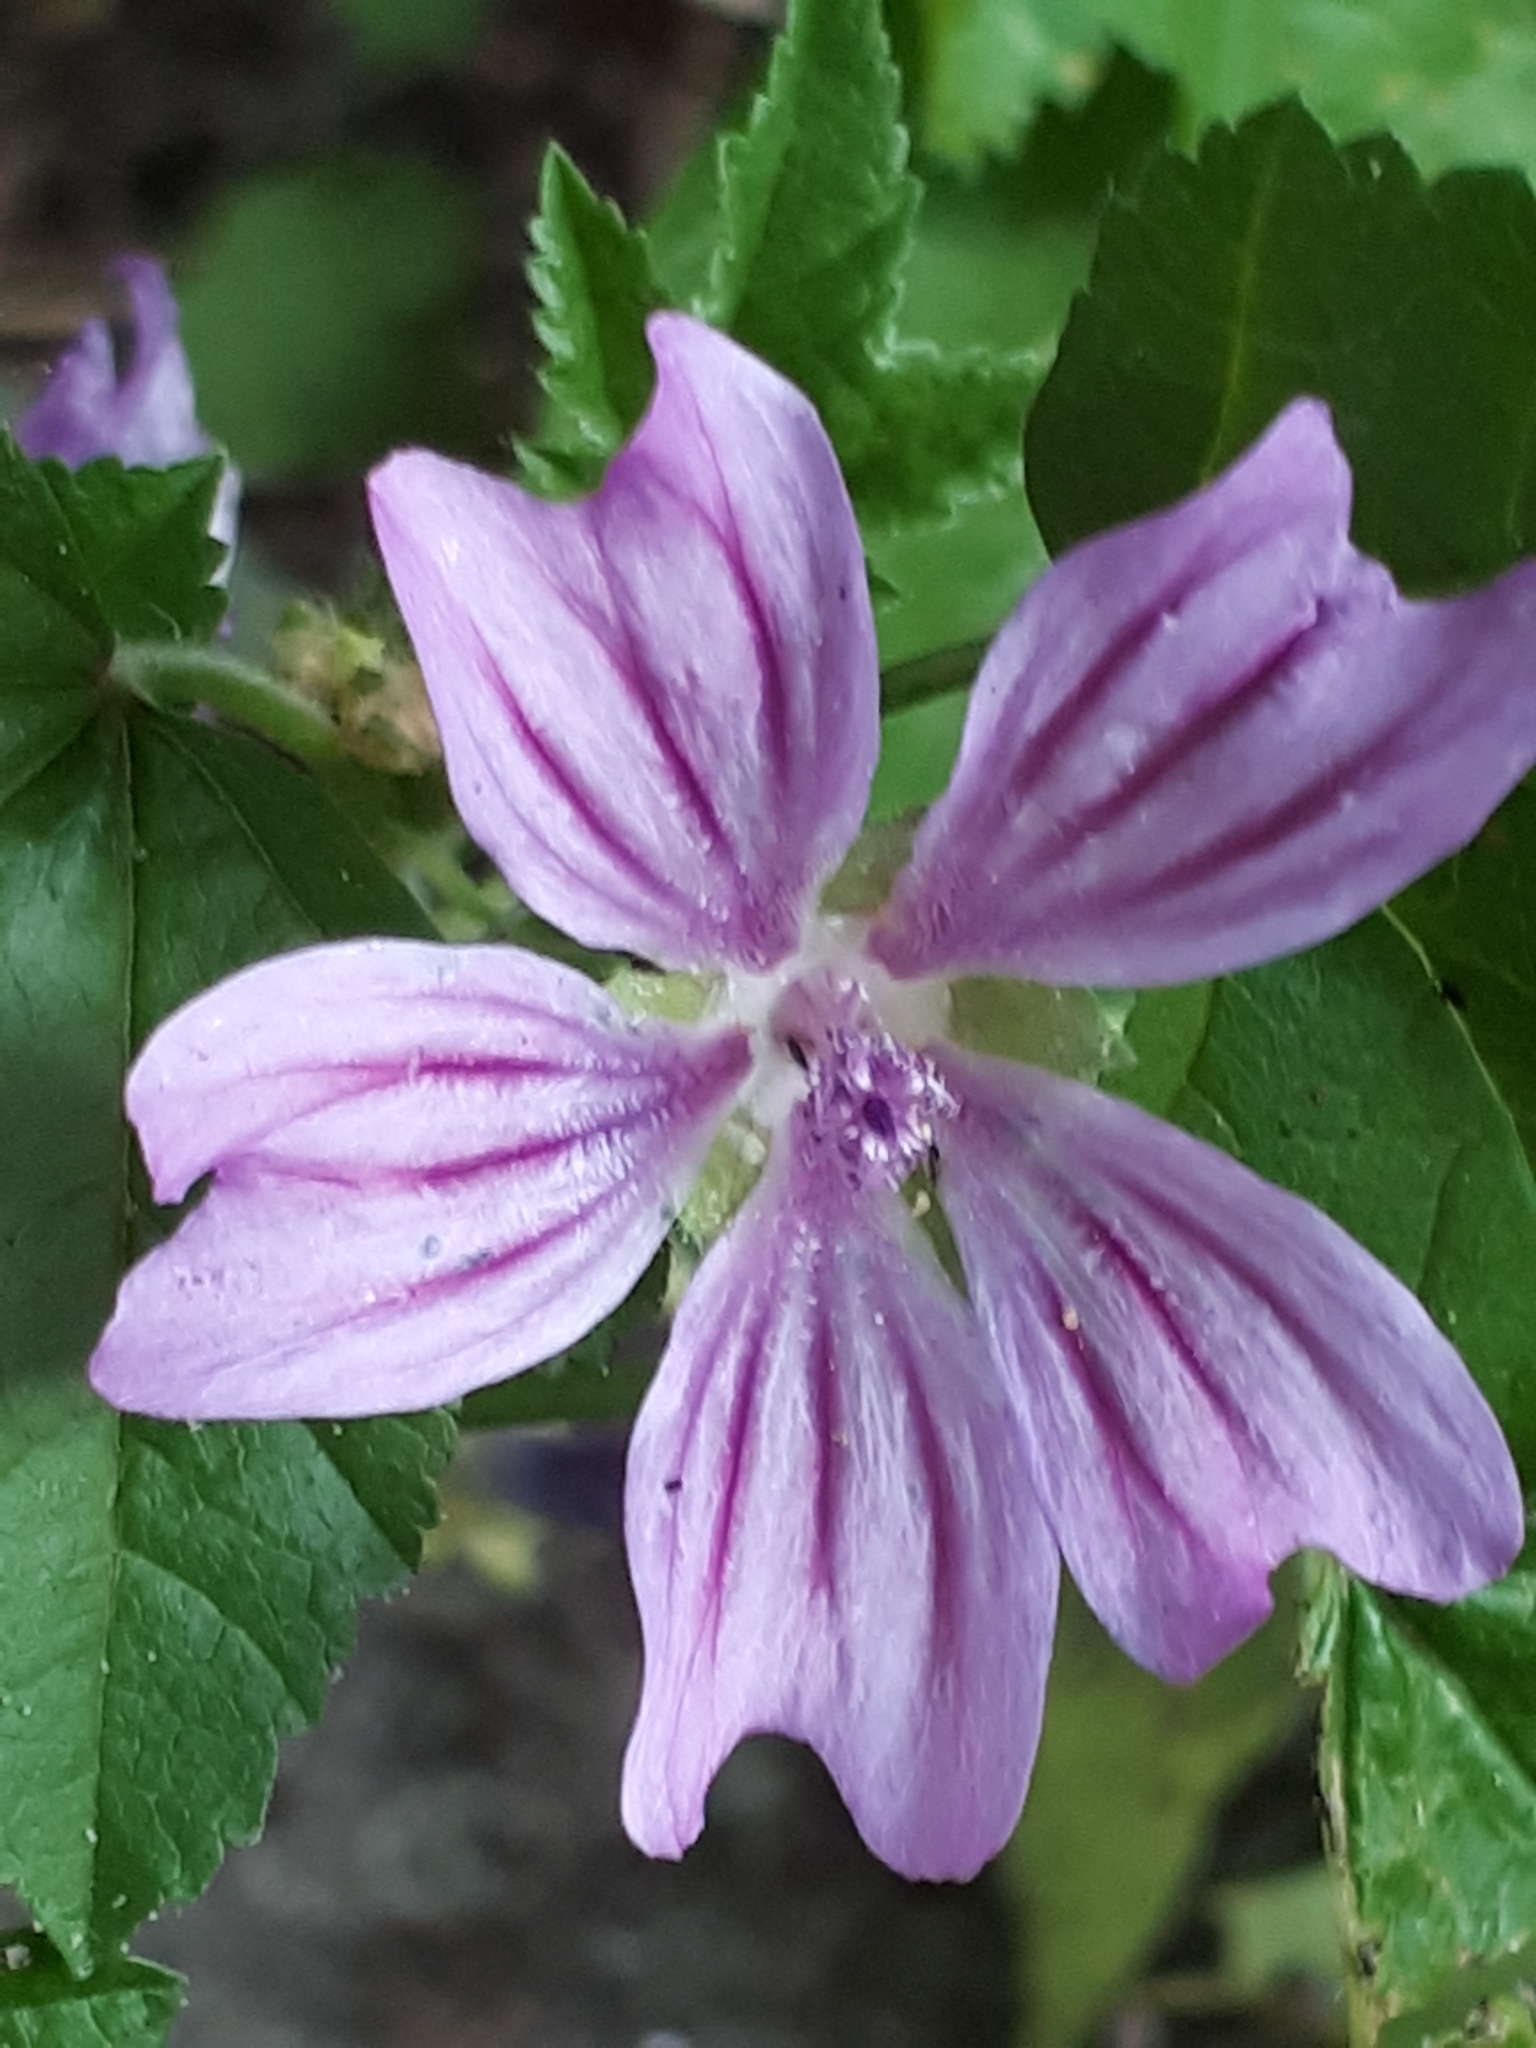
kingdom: Plantae
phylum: Tracheophyta
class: Magnoliopsida
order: Malvales
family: Malvaceae
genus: Malva
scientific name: Malva sylvestris
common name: Common mallow
